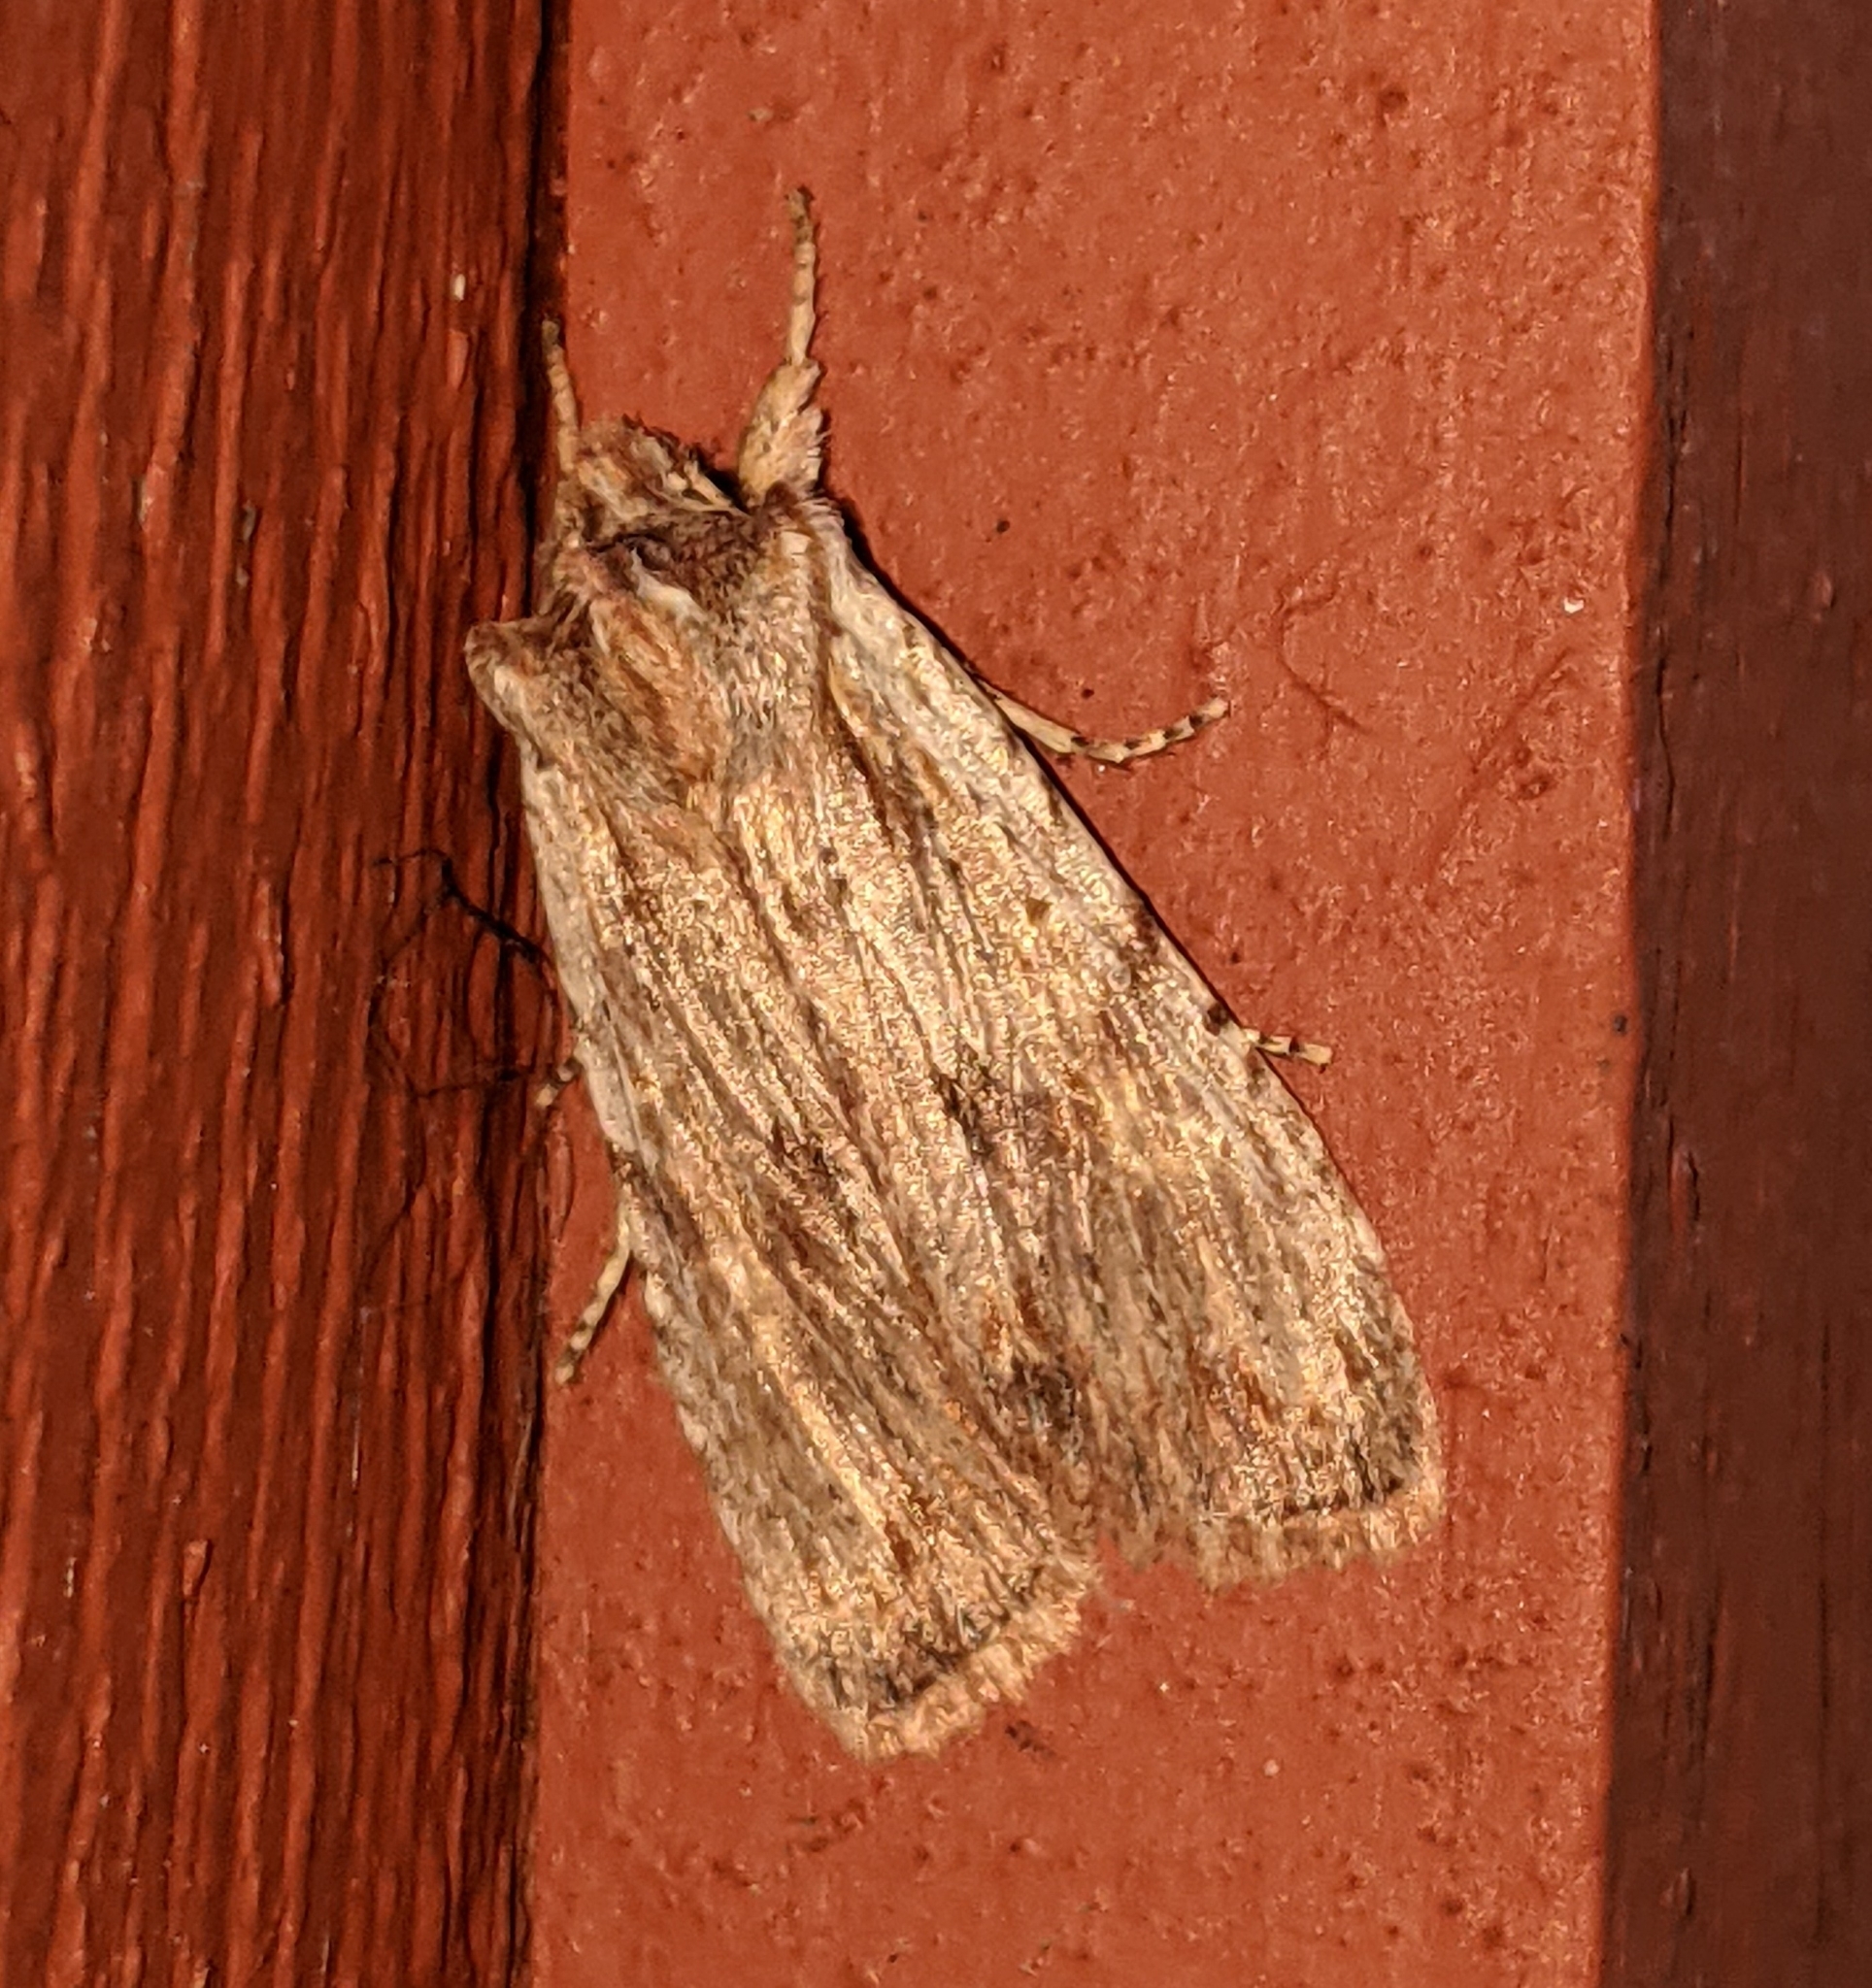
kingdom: Animalia
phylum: Arthropoda
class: Insecta
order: Lepidoptera
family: Noctuidae
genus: Lithophane
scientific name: Lithophane petulca
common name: Wanton pinion
